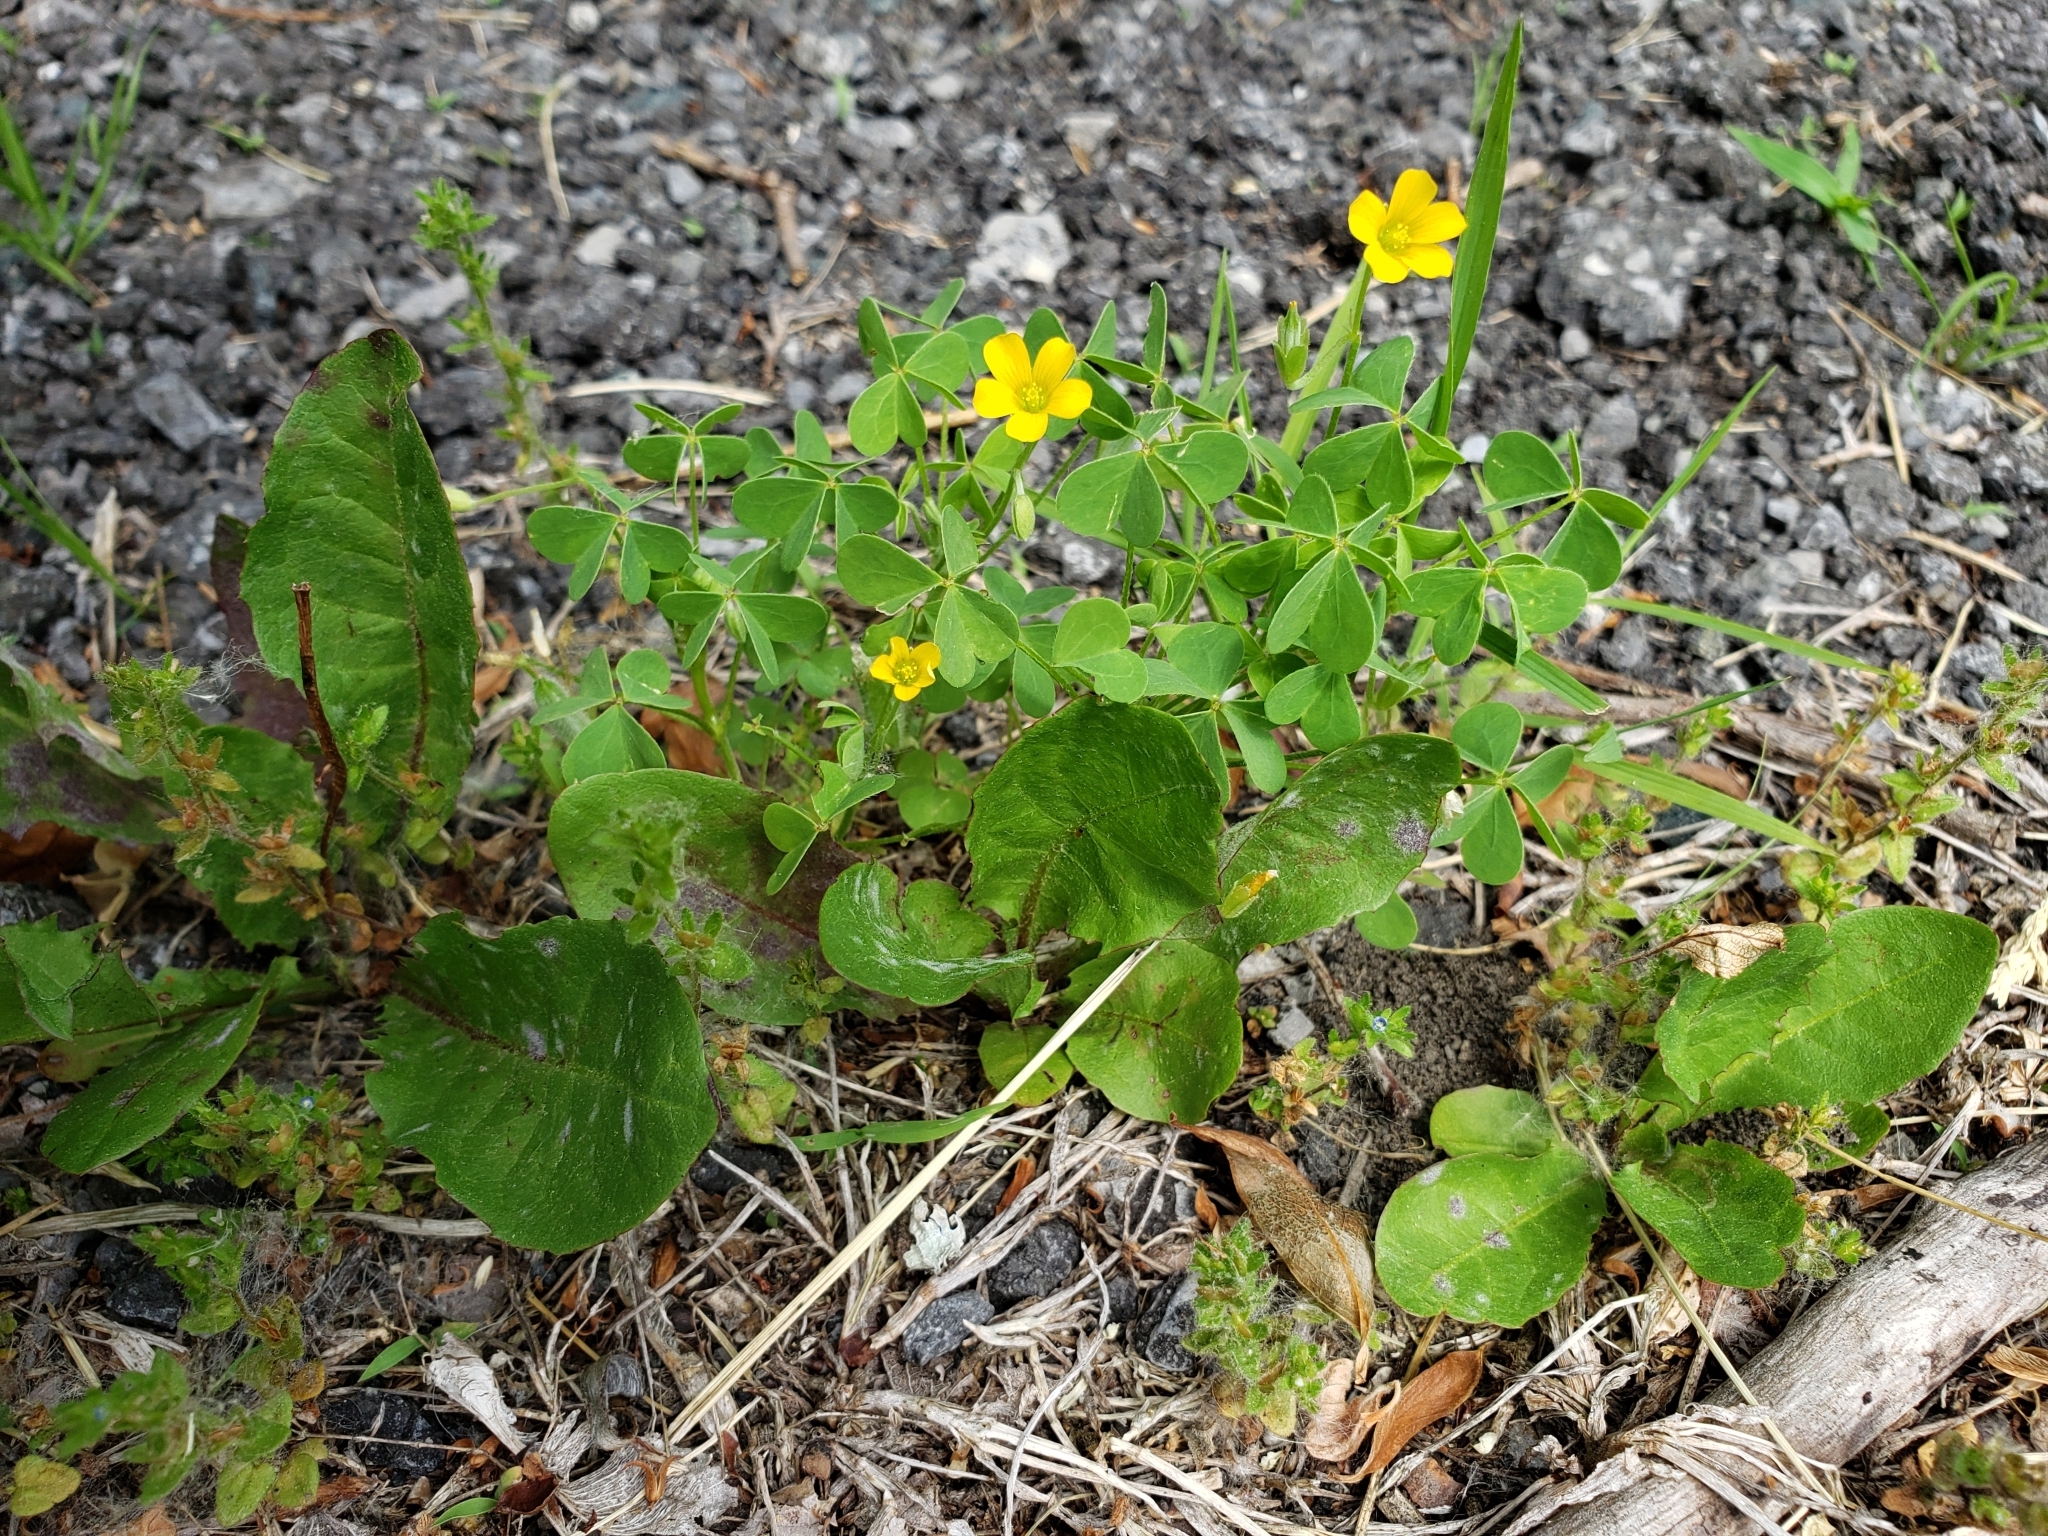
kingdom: Plantae
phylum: Tracheophyta
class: Magnoliopsida
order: Oxalidales
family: Oxalidaceae
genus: Oxalis
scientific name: Oxalis stricta
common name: Upright yellow-sorrel
